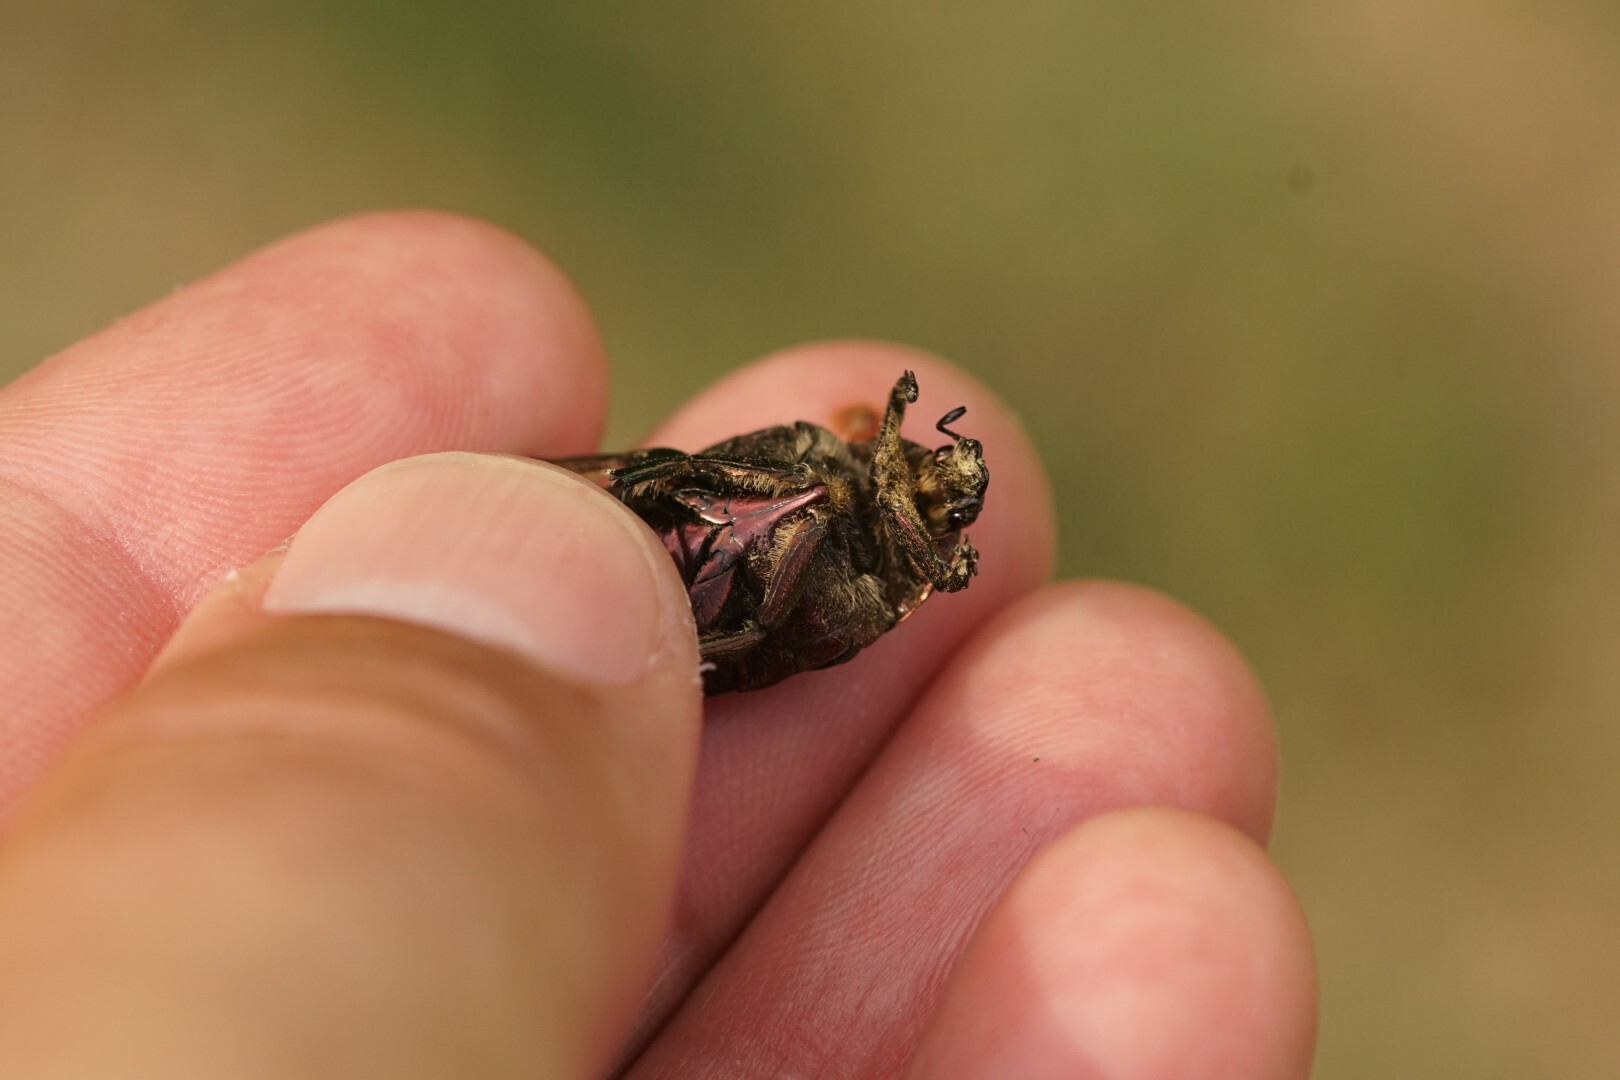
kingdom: Animalia
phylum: Arthropoda
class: Insecta
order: Coleoptera
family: Scarabaeidae
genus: Cetonia
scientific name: Cetonia aurata
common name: Rose chafer
